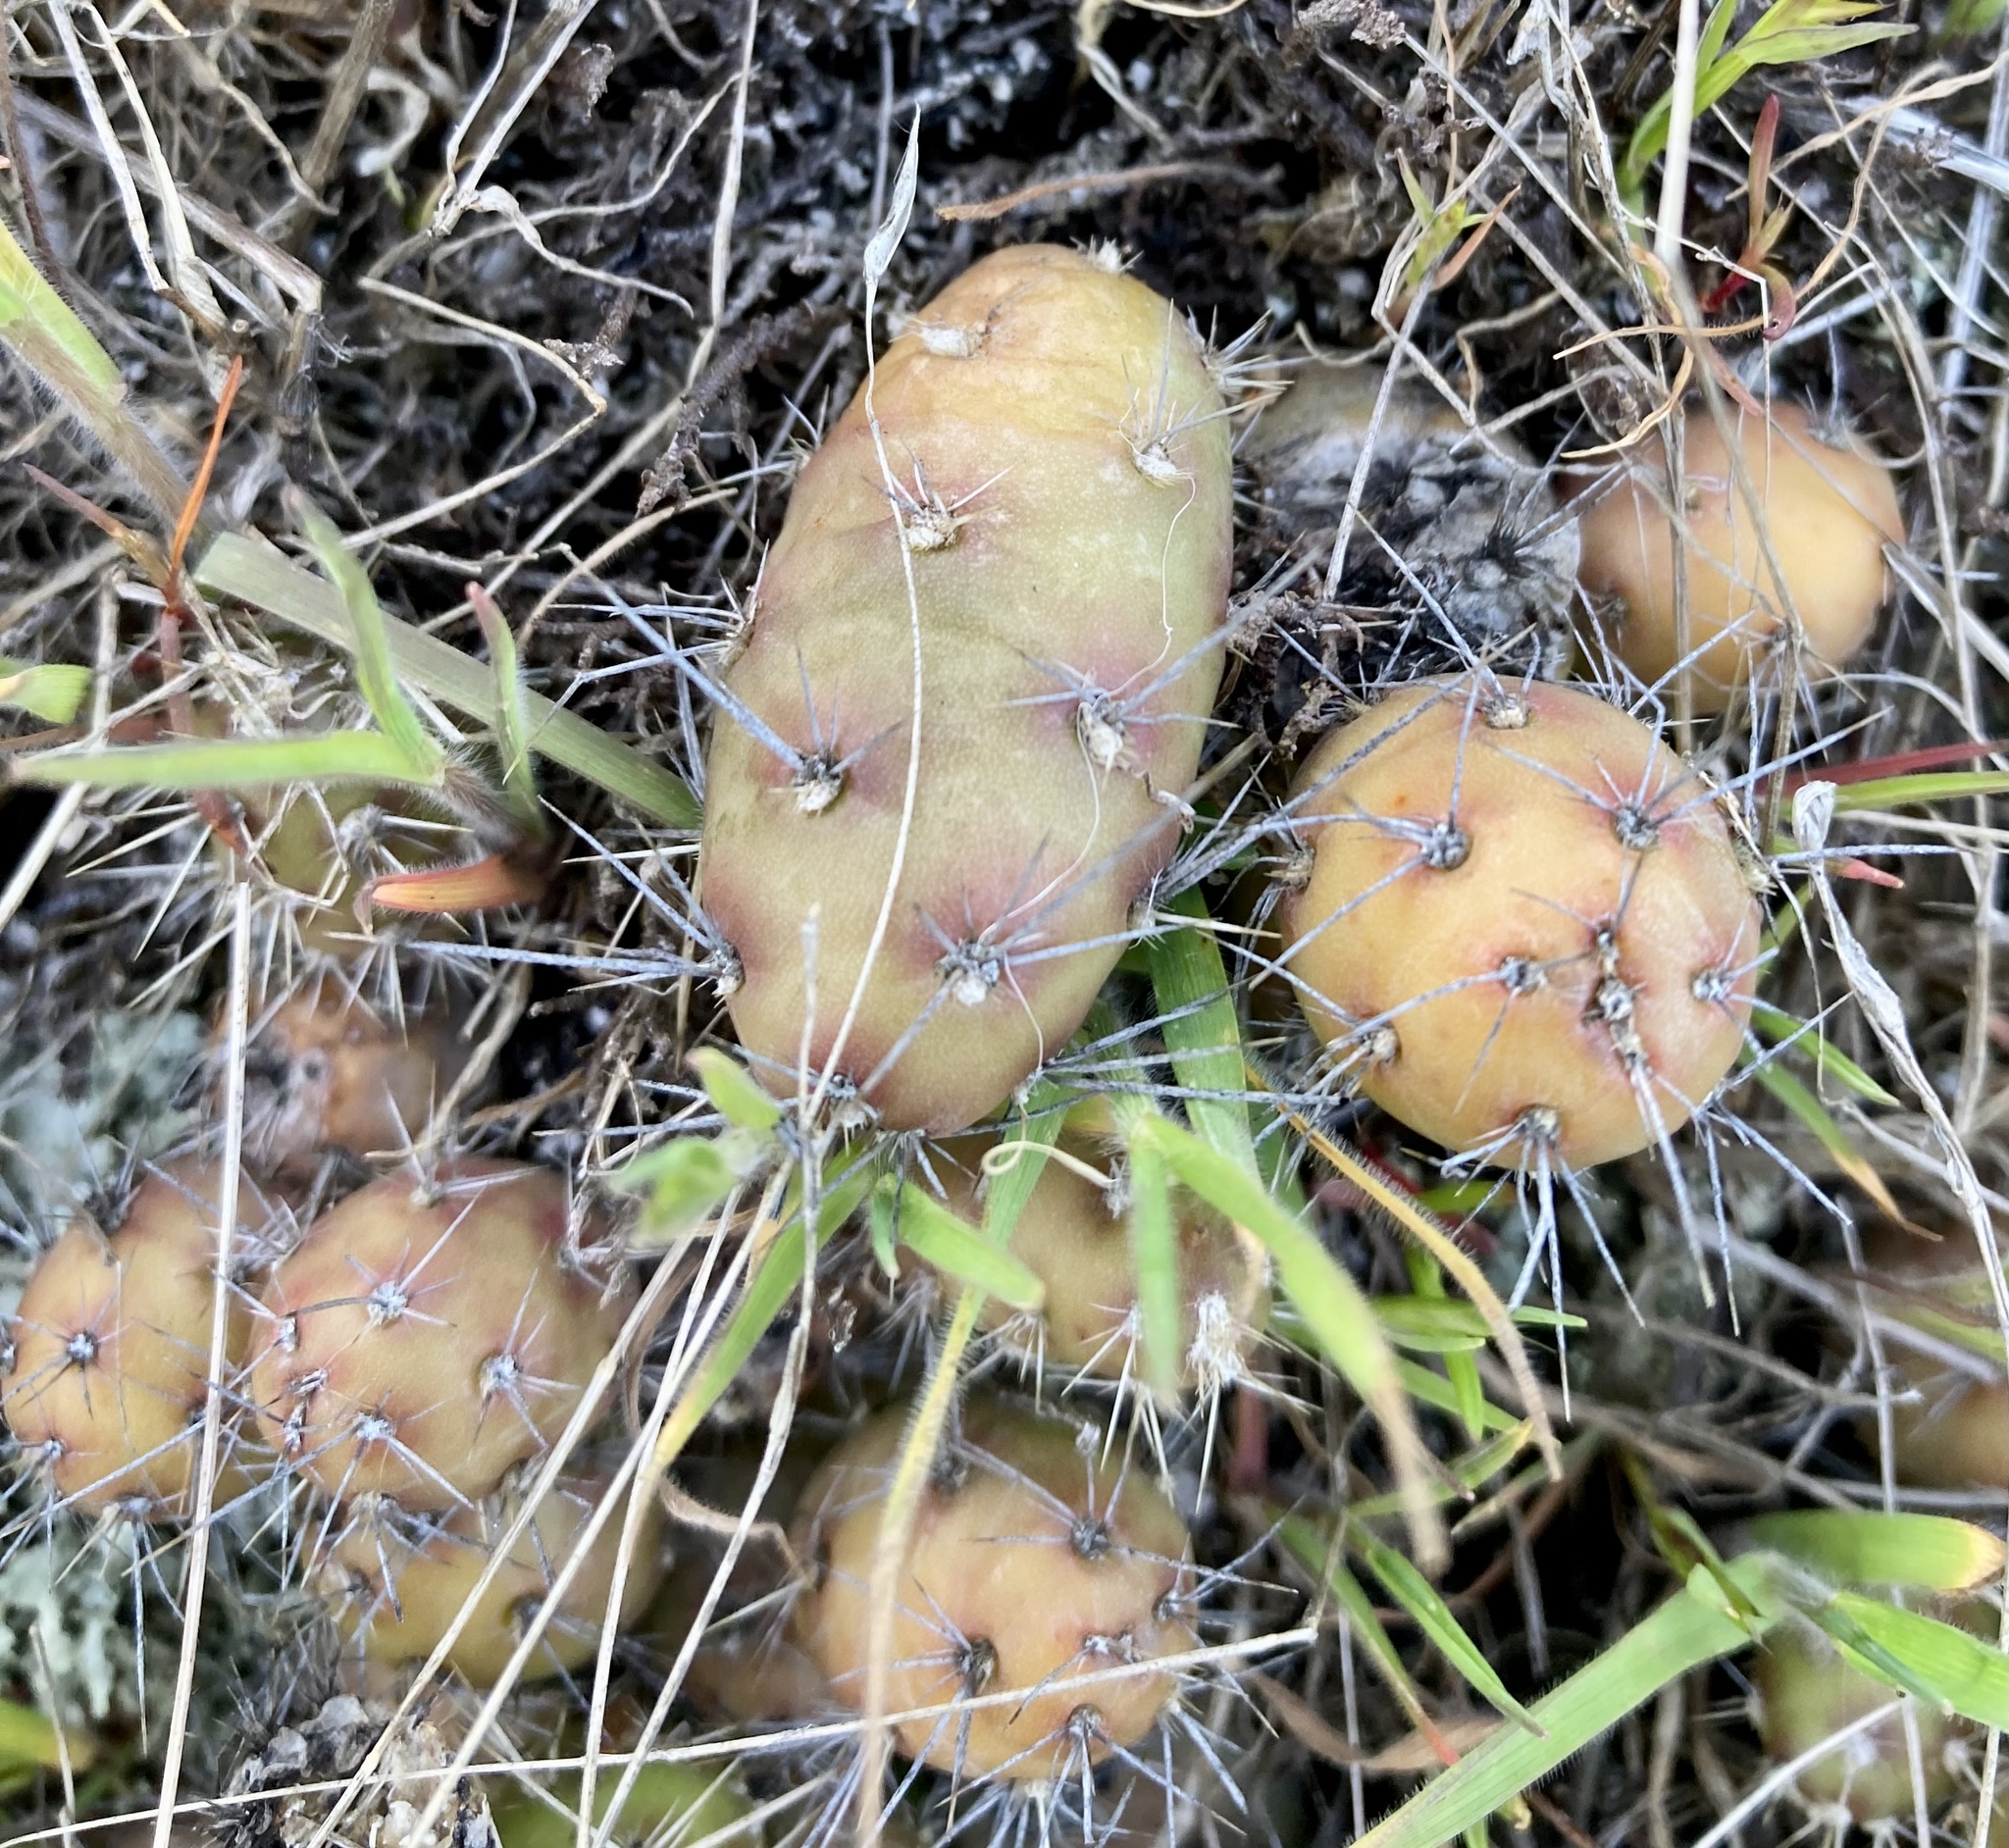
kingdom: Plantae
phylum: Tracheophyta
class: Magnoliopsida
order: Caryophyllales
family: Cactaceae
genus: Opuntia
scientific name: Opuntia fragilis
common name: Brittle cactus
